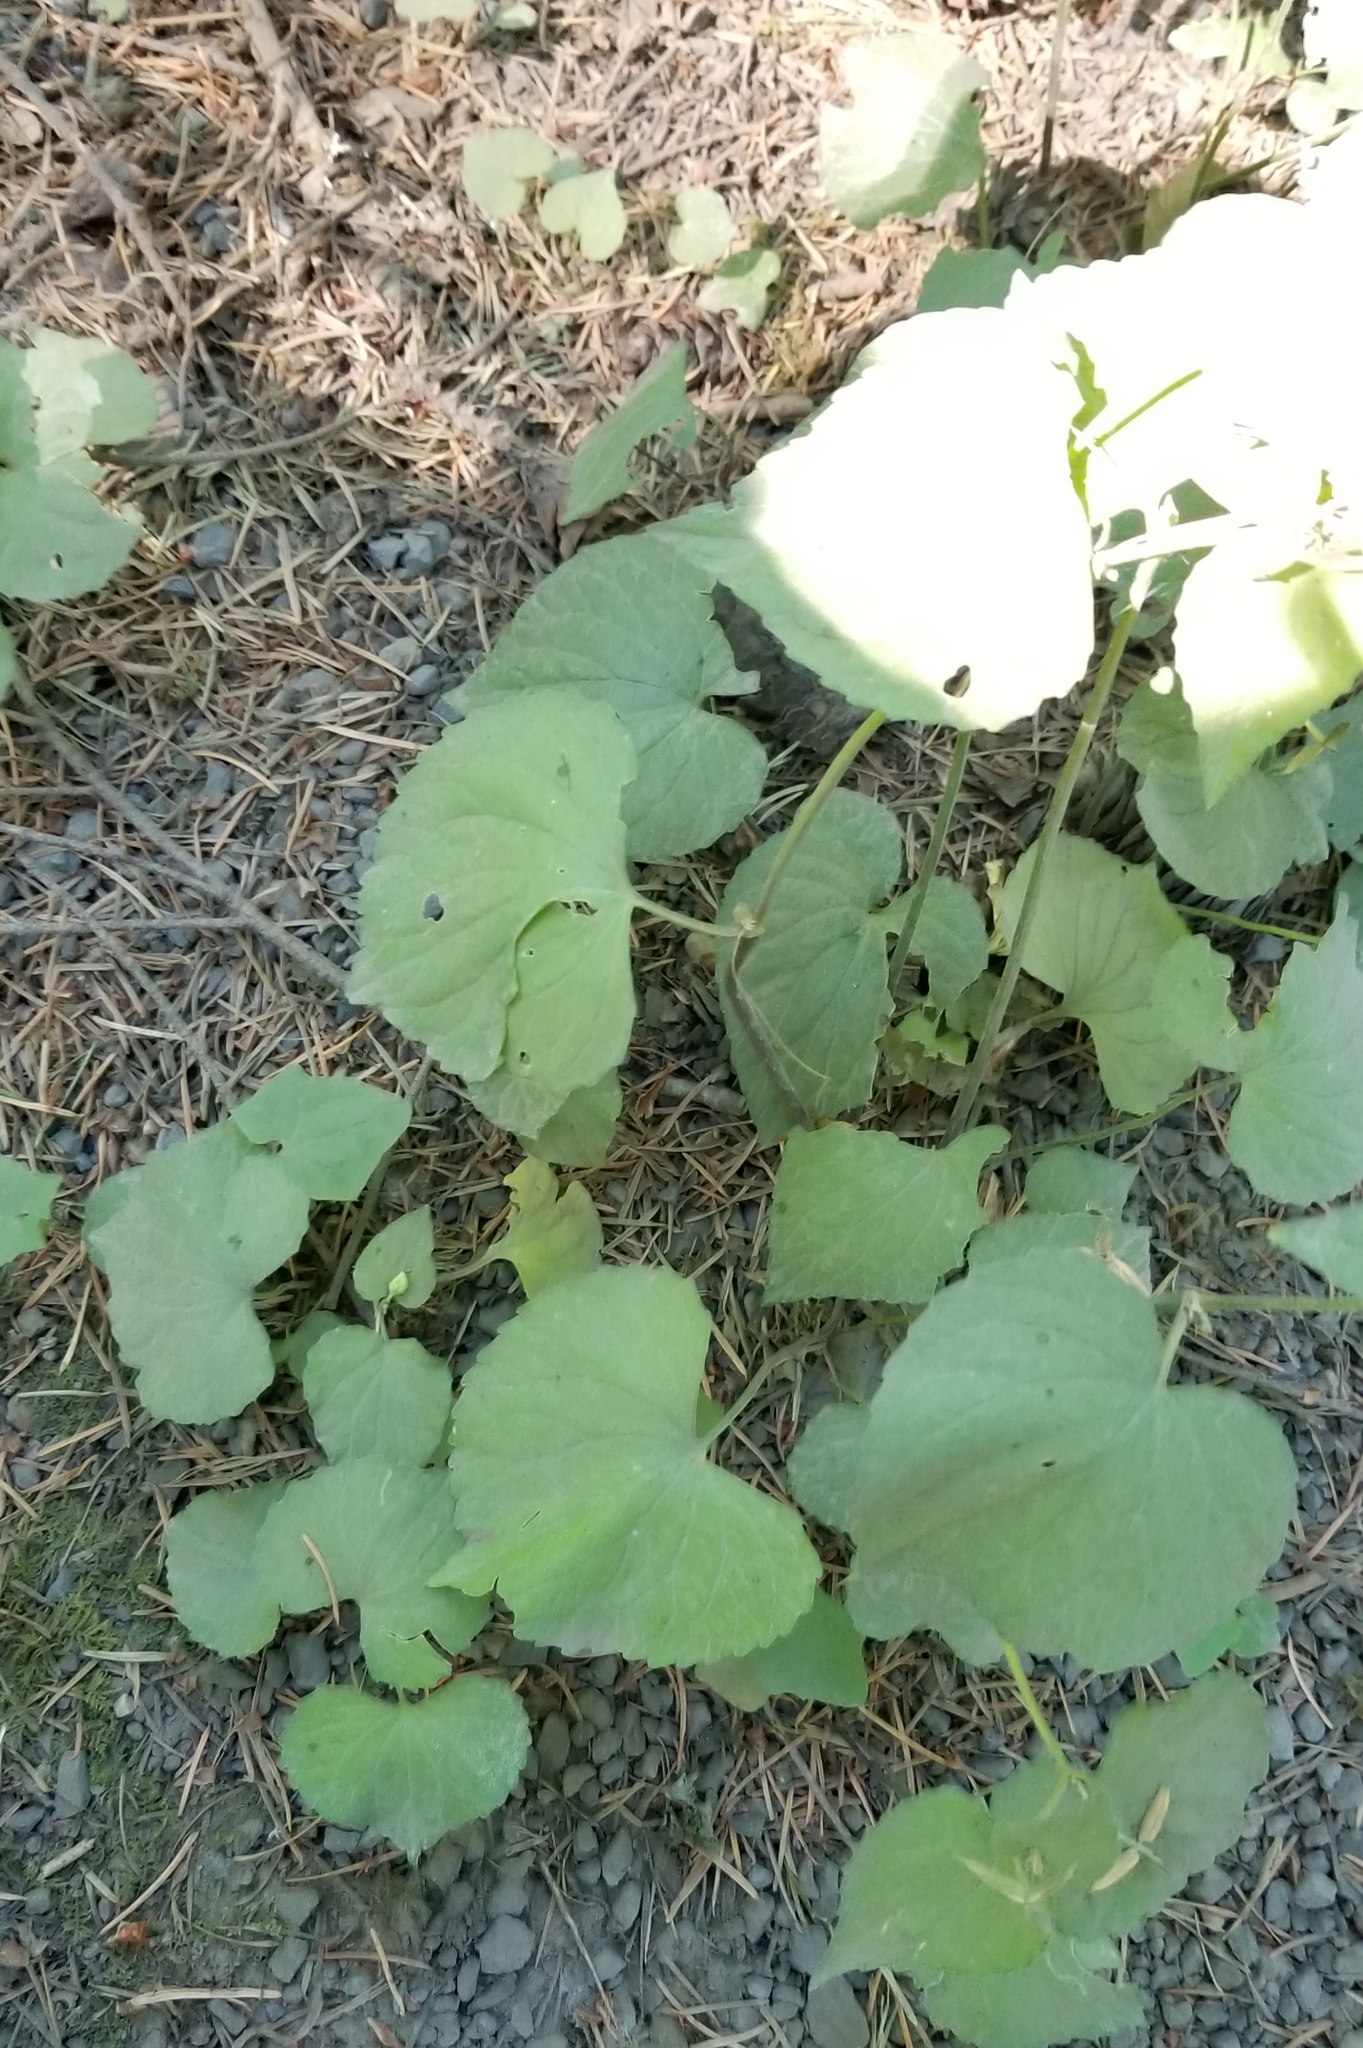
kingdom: Plantae
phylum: Tracheophyta
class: Magnoliopsida
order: Malpighiales
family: Violaceae
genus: Viola
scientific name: Viola glabella
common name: Stream violet
